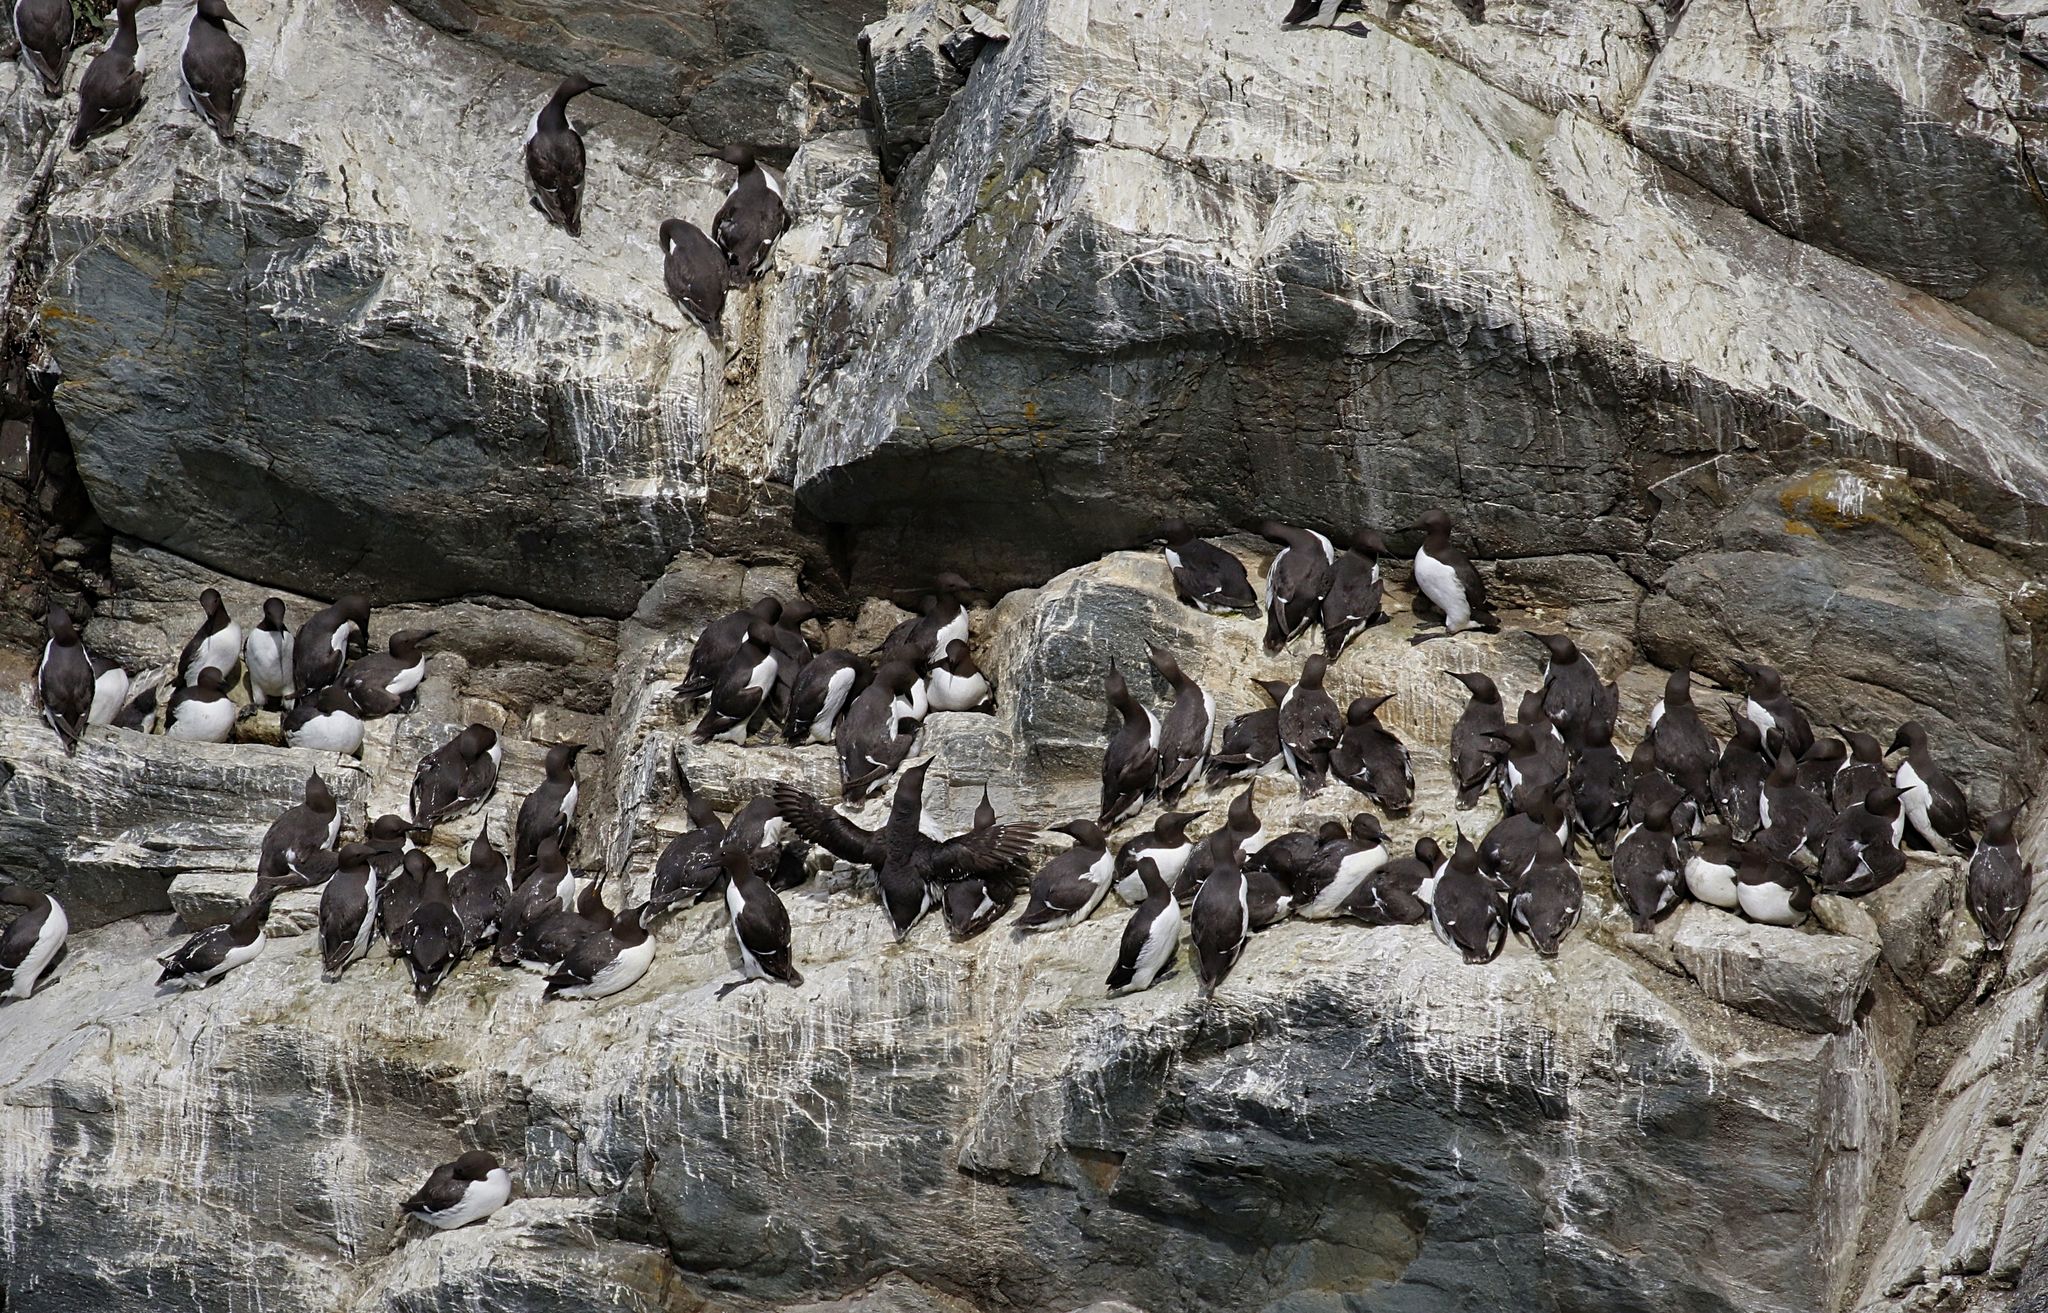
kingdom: Animalia
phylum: Chordata
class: Aves
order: Charadriiformes
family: Alcidae
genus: Uria
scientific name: Uria aalge
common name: Common murre
